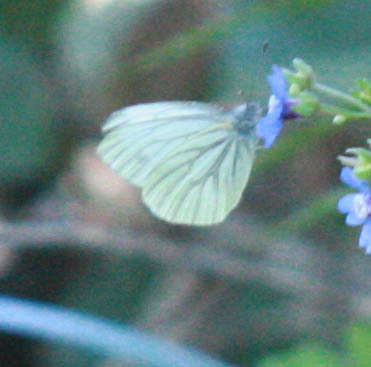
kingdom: Animalia
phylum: Arthropoda
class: Insecta
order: Lepidoptera
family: Pieridae
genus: Pieris
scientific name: Pieris marginalis
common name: Margined white
